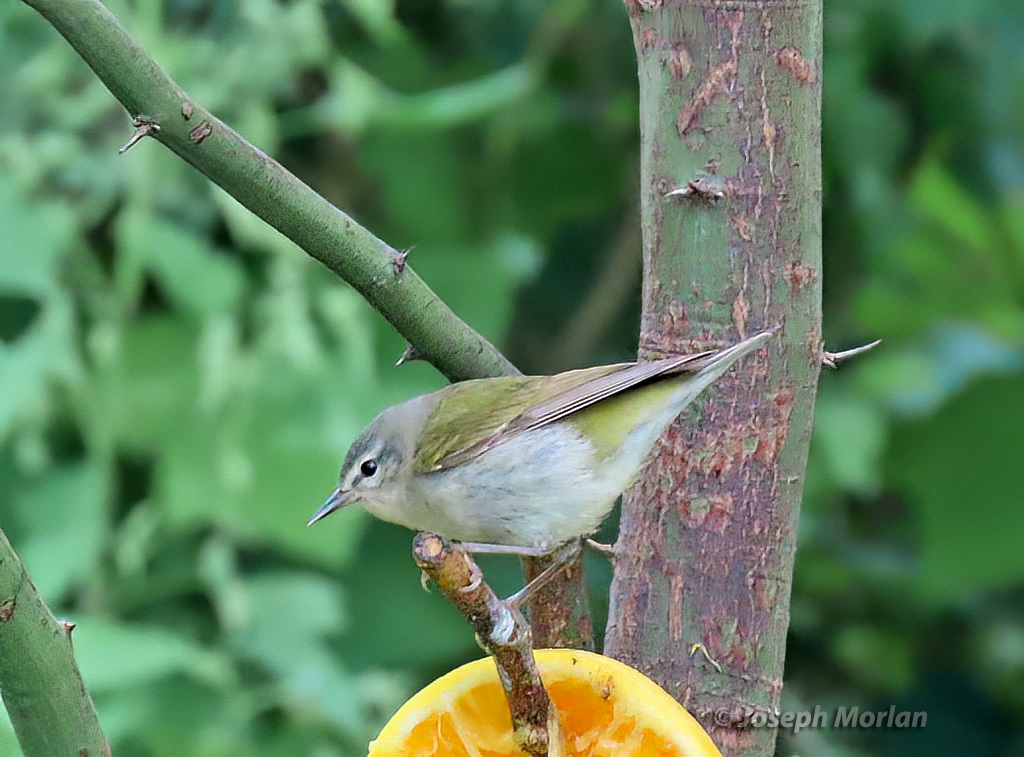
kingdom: Animalia
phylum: Chordata
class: Aves
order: Passeriformes
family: Parulidae
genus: Leiothlypis
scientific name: Leiothlypis peregrina
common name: Tennessee warbler
